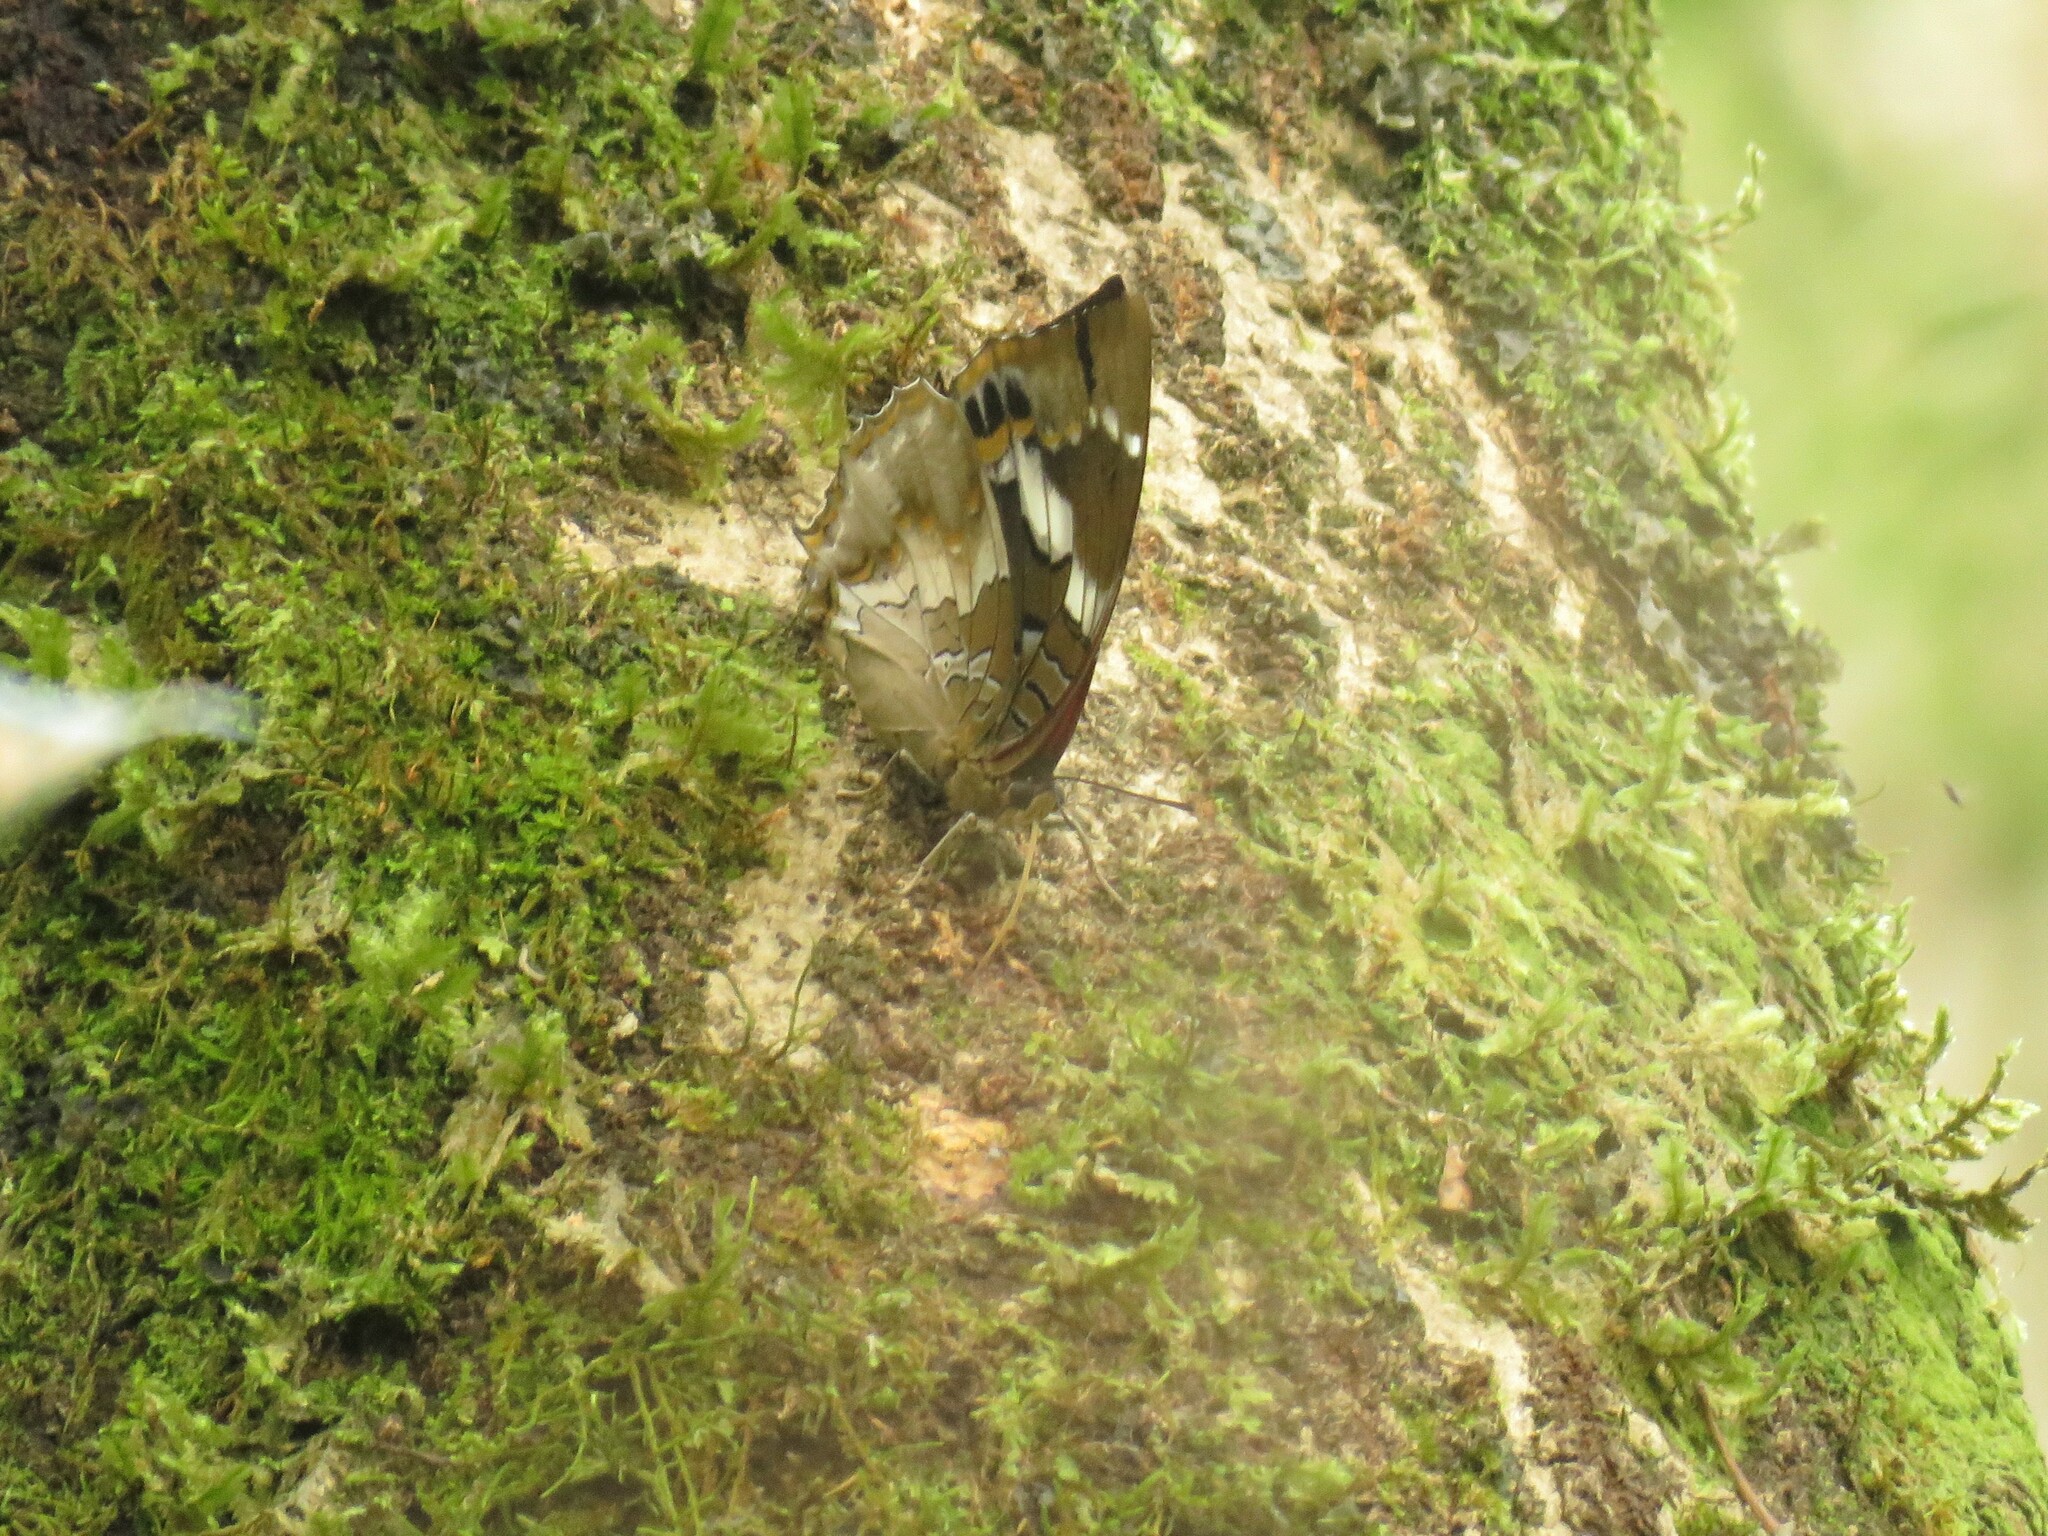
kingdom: Animalia
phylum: Arthropoda
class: Insecta
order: Lepidoptera
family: Nymphalidae
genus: Charaxes
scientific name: Charaxes xiphares
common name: Forest-king charaxes
